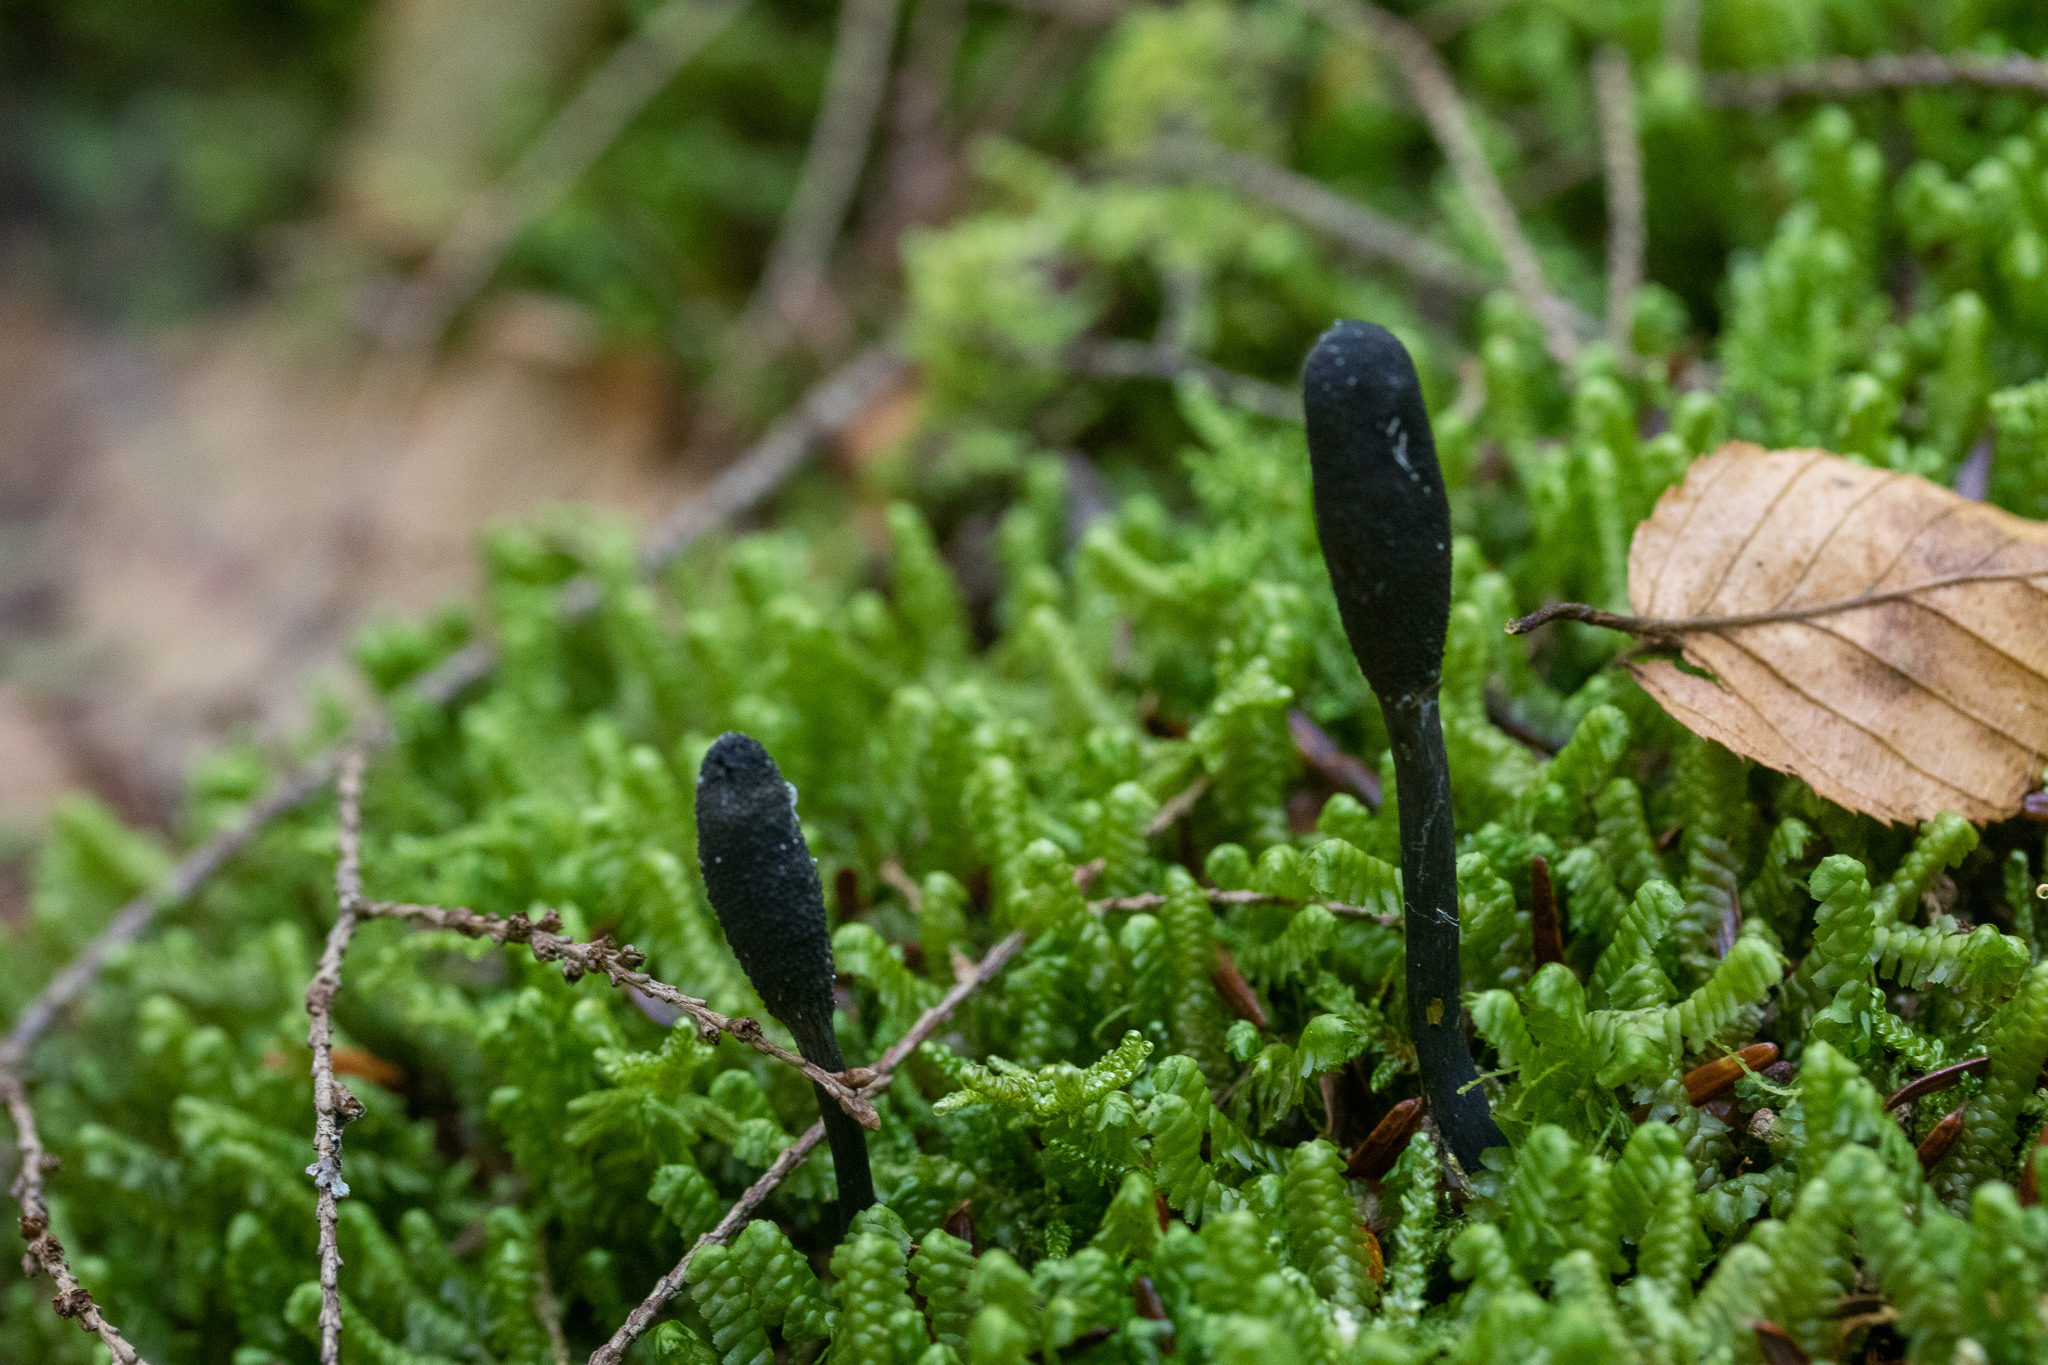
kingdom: Fungi
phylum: Ascomycota
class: Sordariomycetes
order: Hypocreales
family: Ophiocordycipitaceae
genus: Tolypocladium
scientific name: Tolypocladium ophioglossoides
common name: Snaketongue truffleclub
